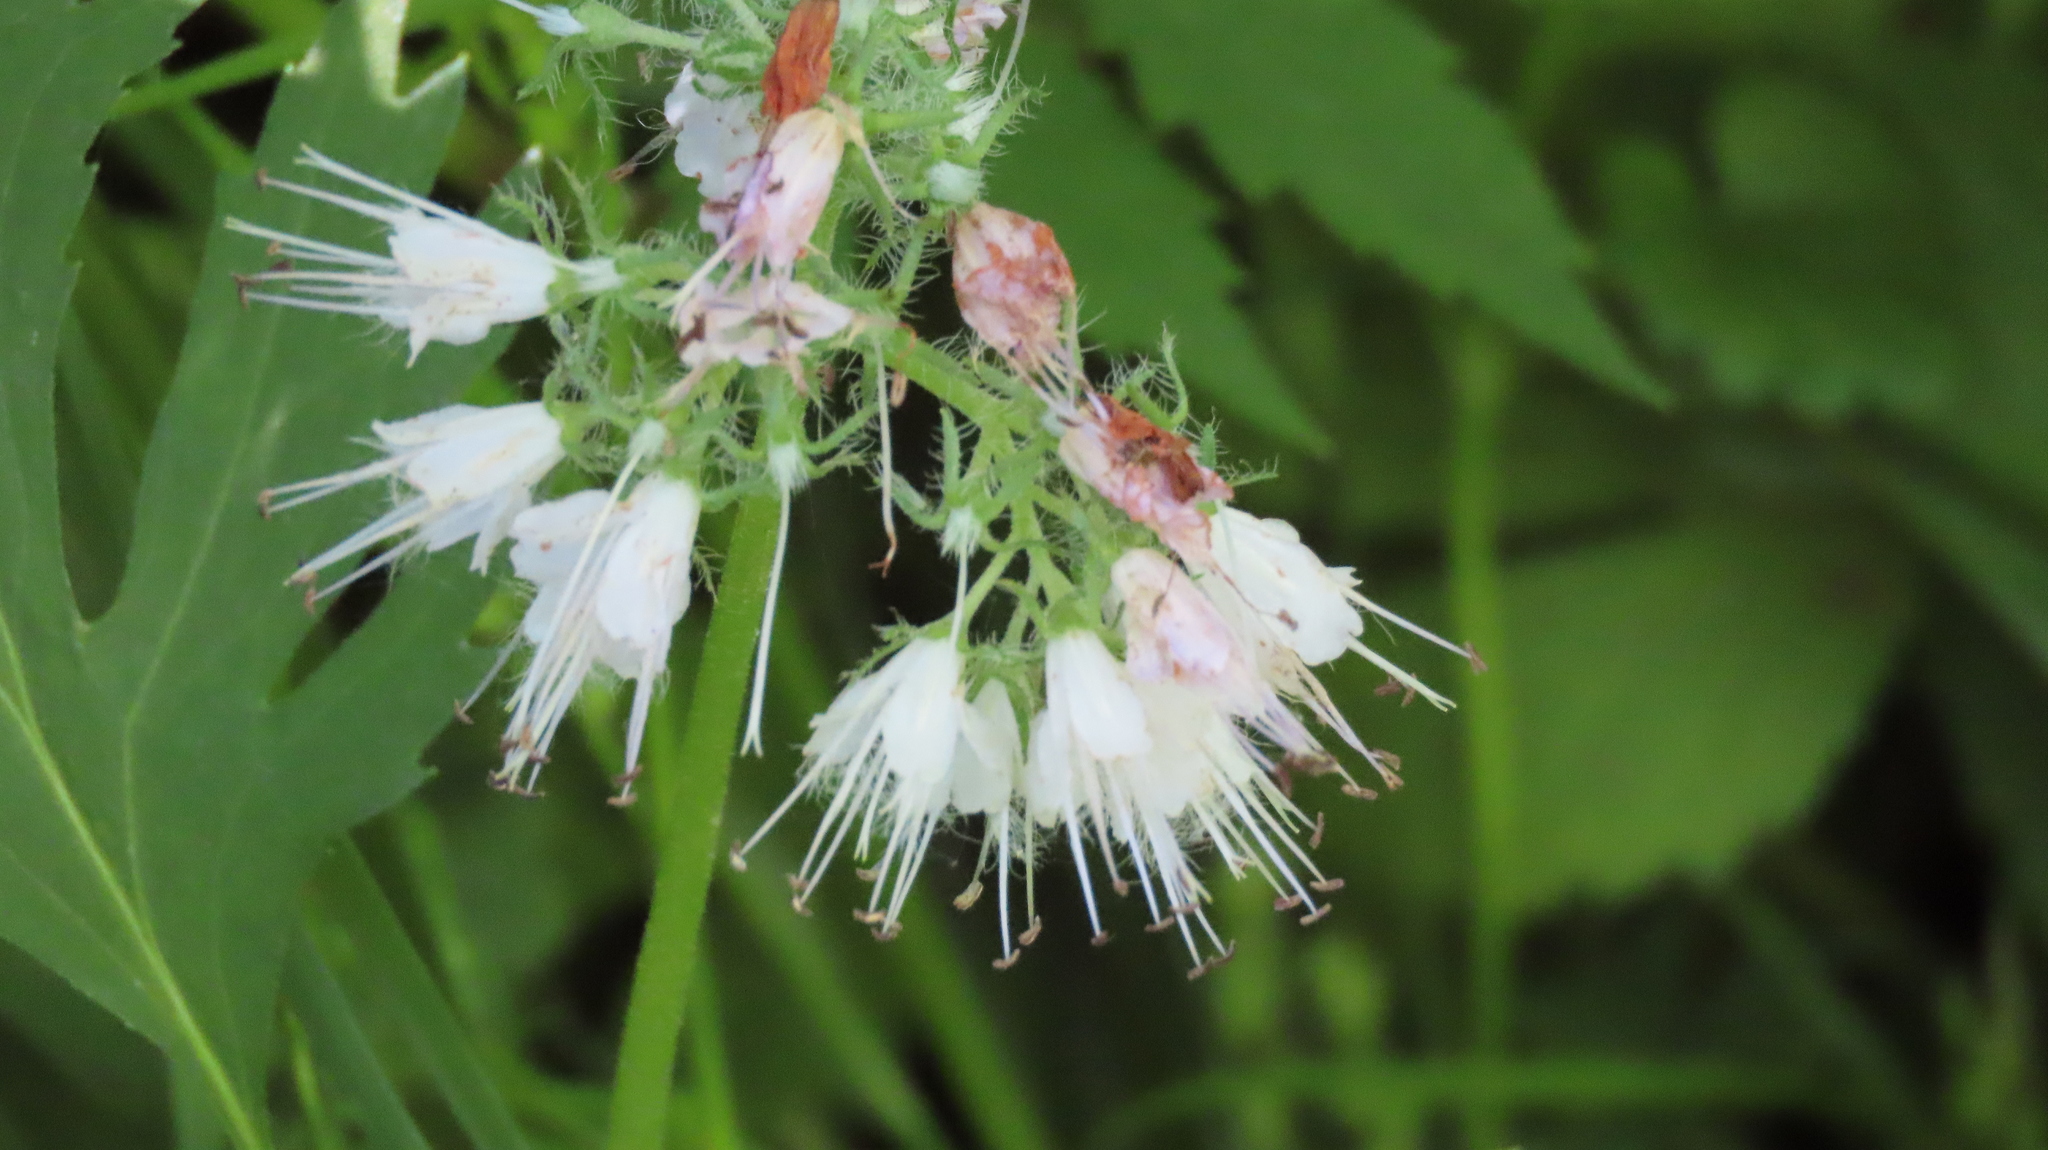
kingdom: Plantae
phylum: Tracheophyta
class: Magnoliopsida
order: Boraginales
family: Hydrophyllaceae
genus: Hydrophyllum
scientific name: Hydrophyllum virginianum
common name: Virginia waterleaf
